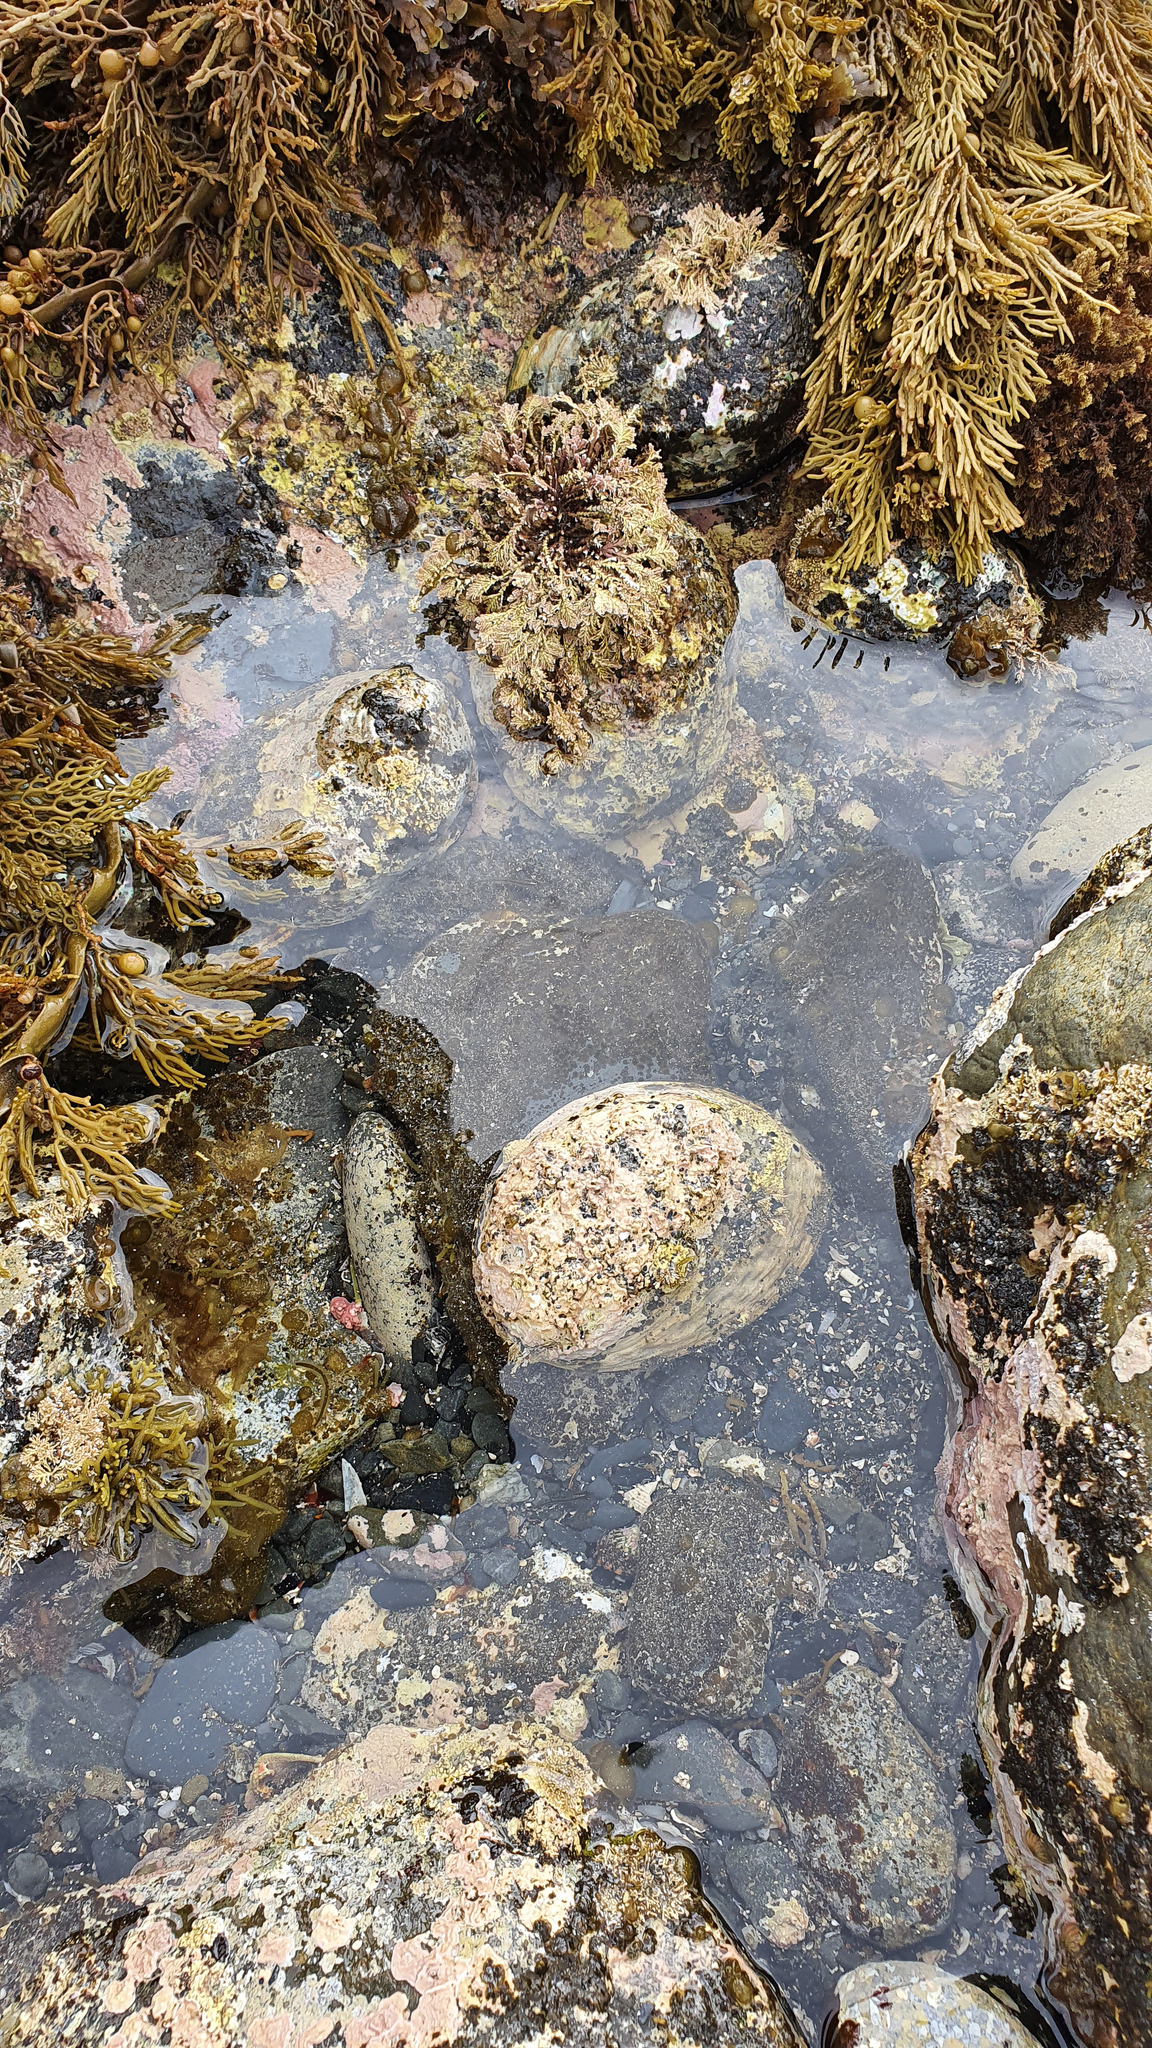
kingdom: Animalia
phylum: Mollusca
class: Gastropoda
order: Lepetellida
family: Haliotidae
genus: Haliotis
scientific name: Haliotis iris
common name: Abalone
